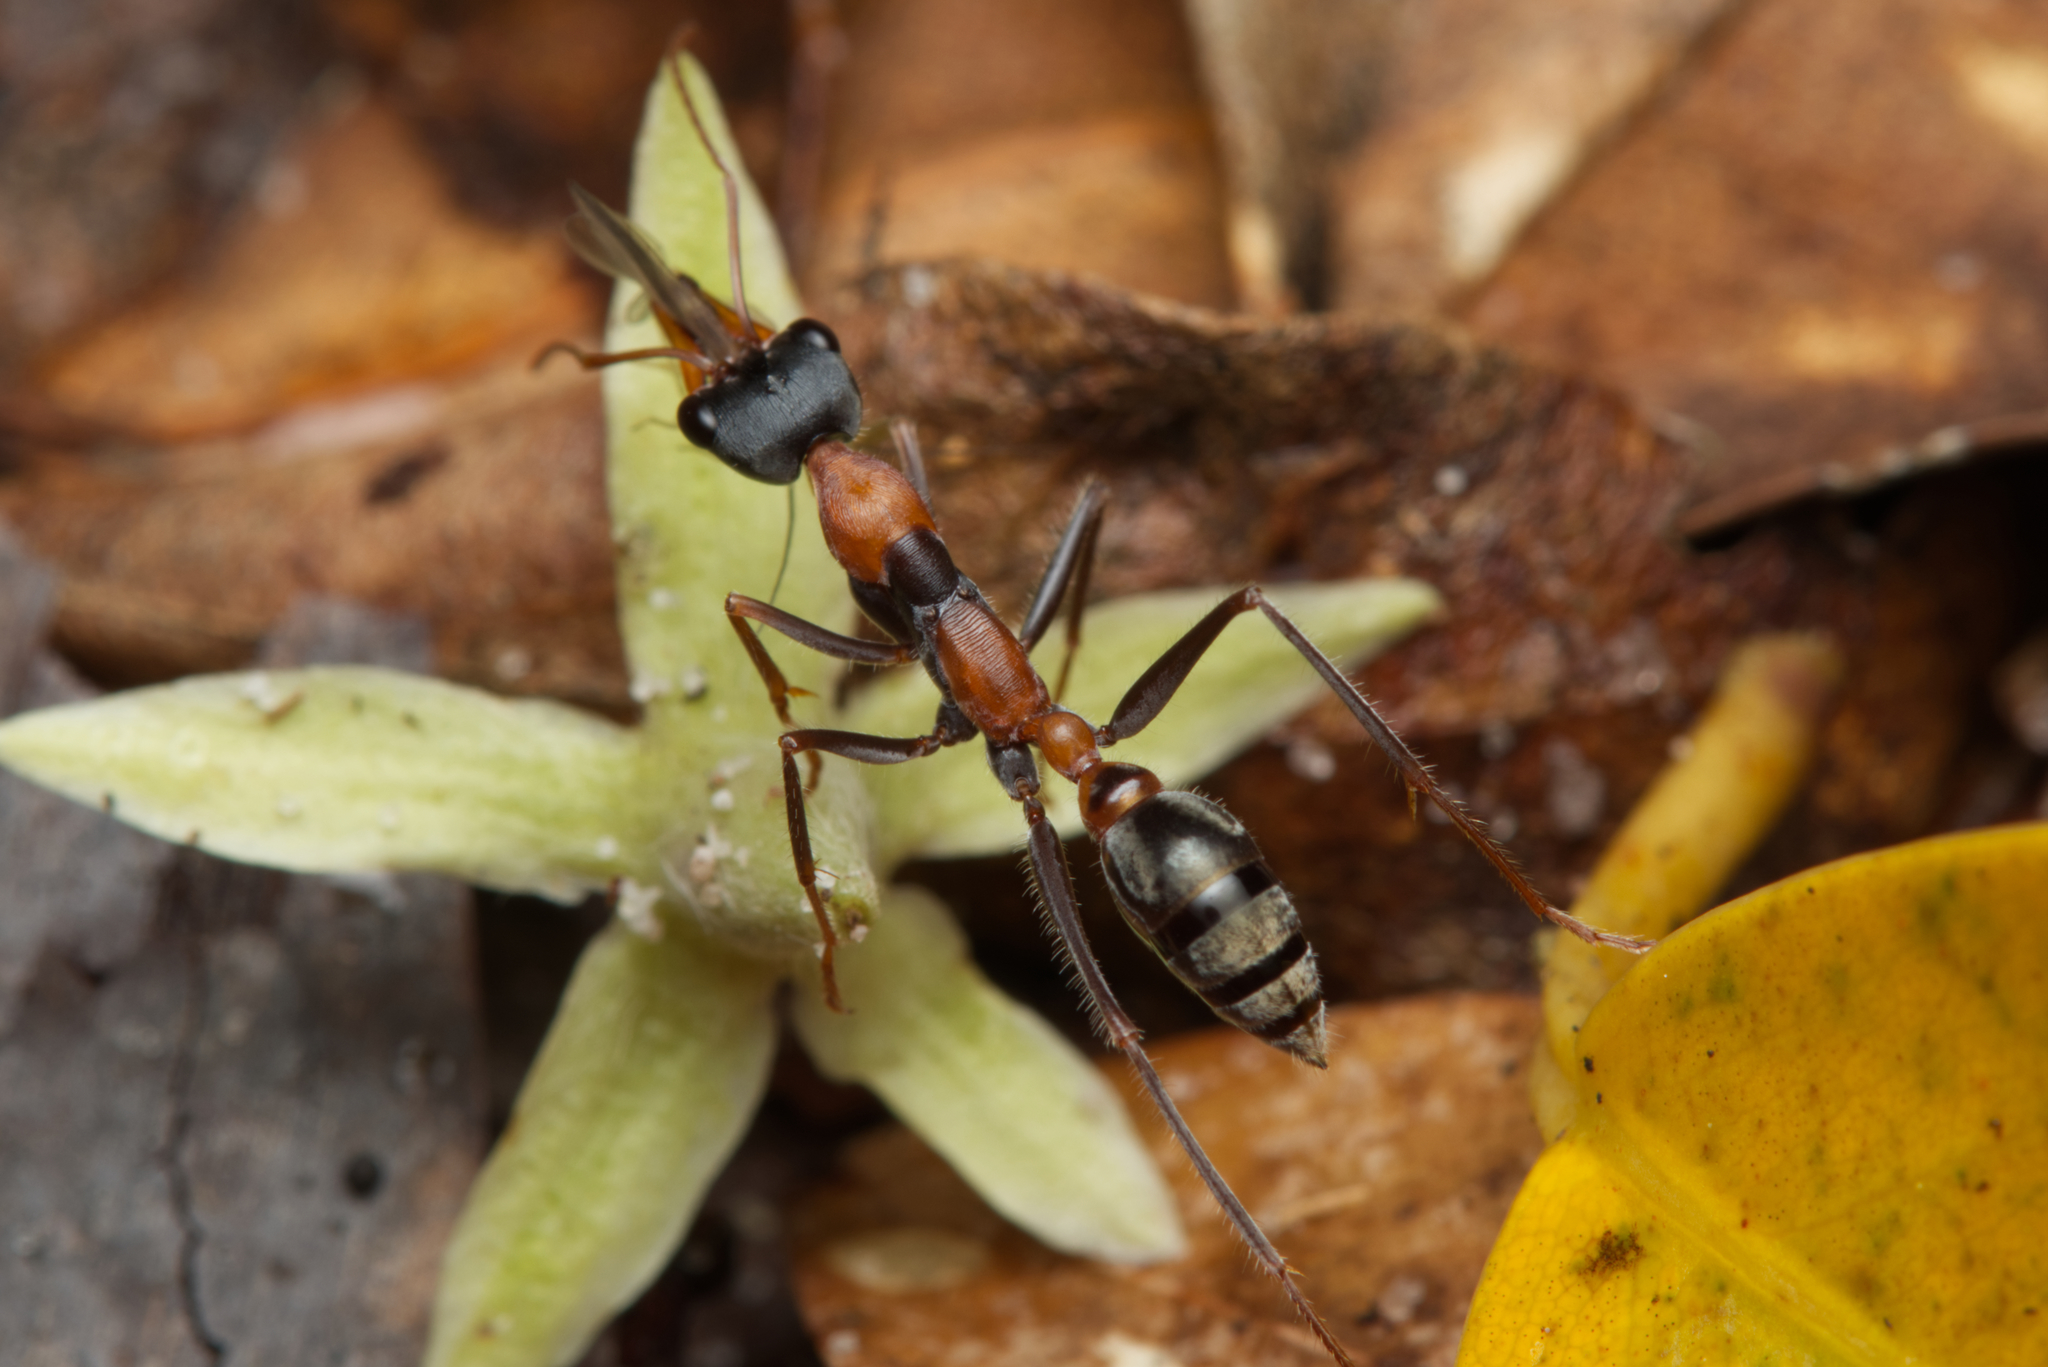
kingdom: Animalia
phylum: Arthropoda
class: Insecta
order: Hymenoptera
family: Formicidae
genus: Myrmecia
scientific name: Myrmecia nigrocincta
